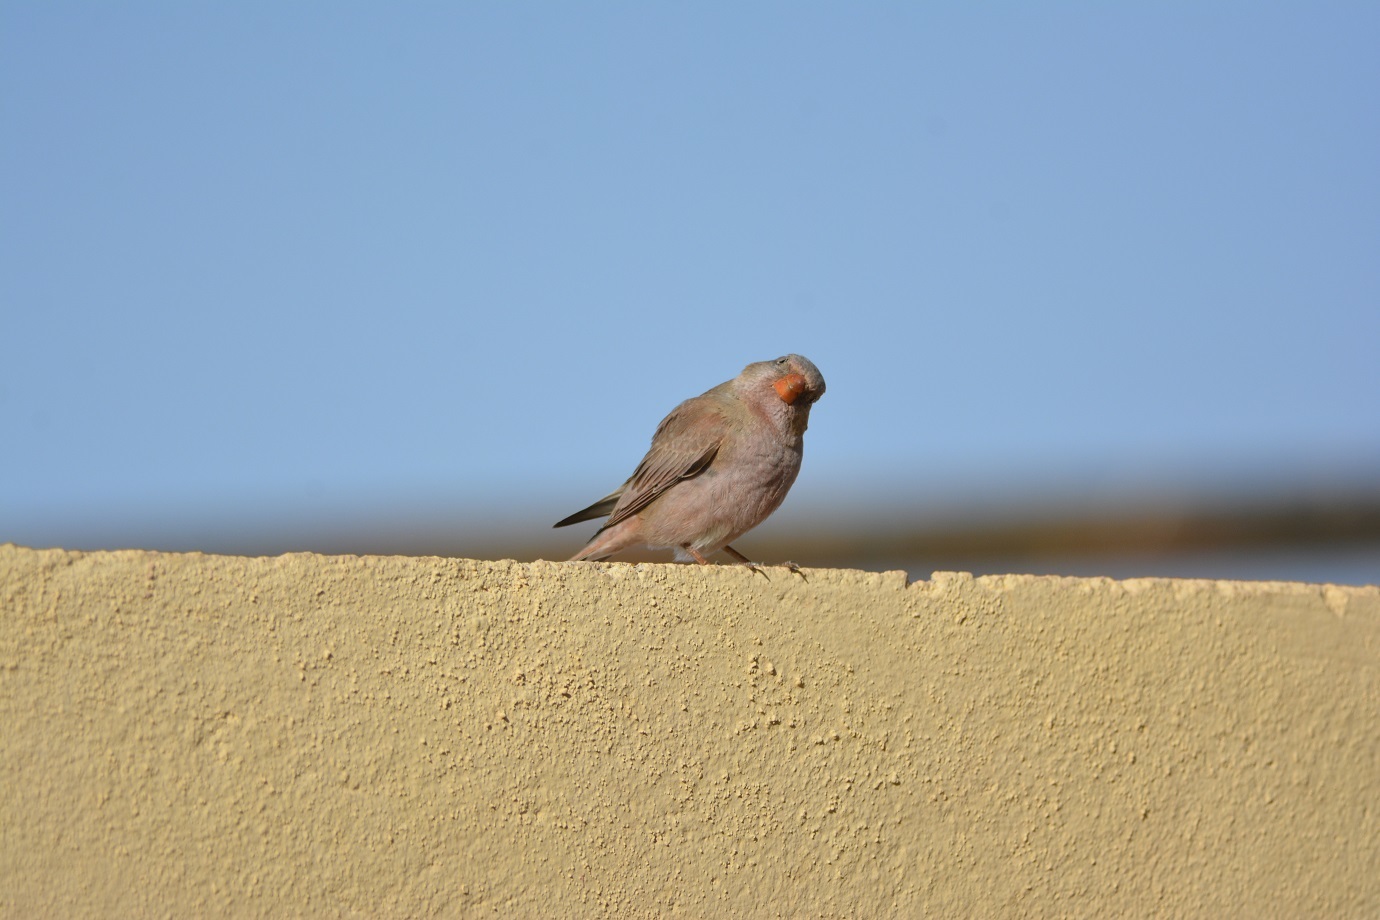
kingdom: Animalia
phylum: Chordata
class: Aves
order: Passeriformes
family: Fringillidae
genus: Bucanetes
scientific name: Bucanetes githagineus
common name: Trumpeter finch
